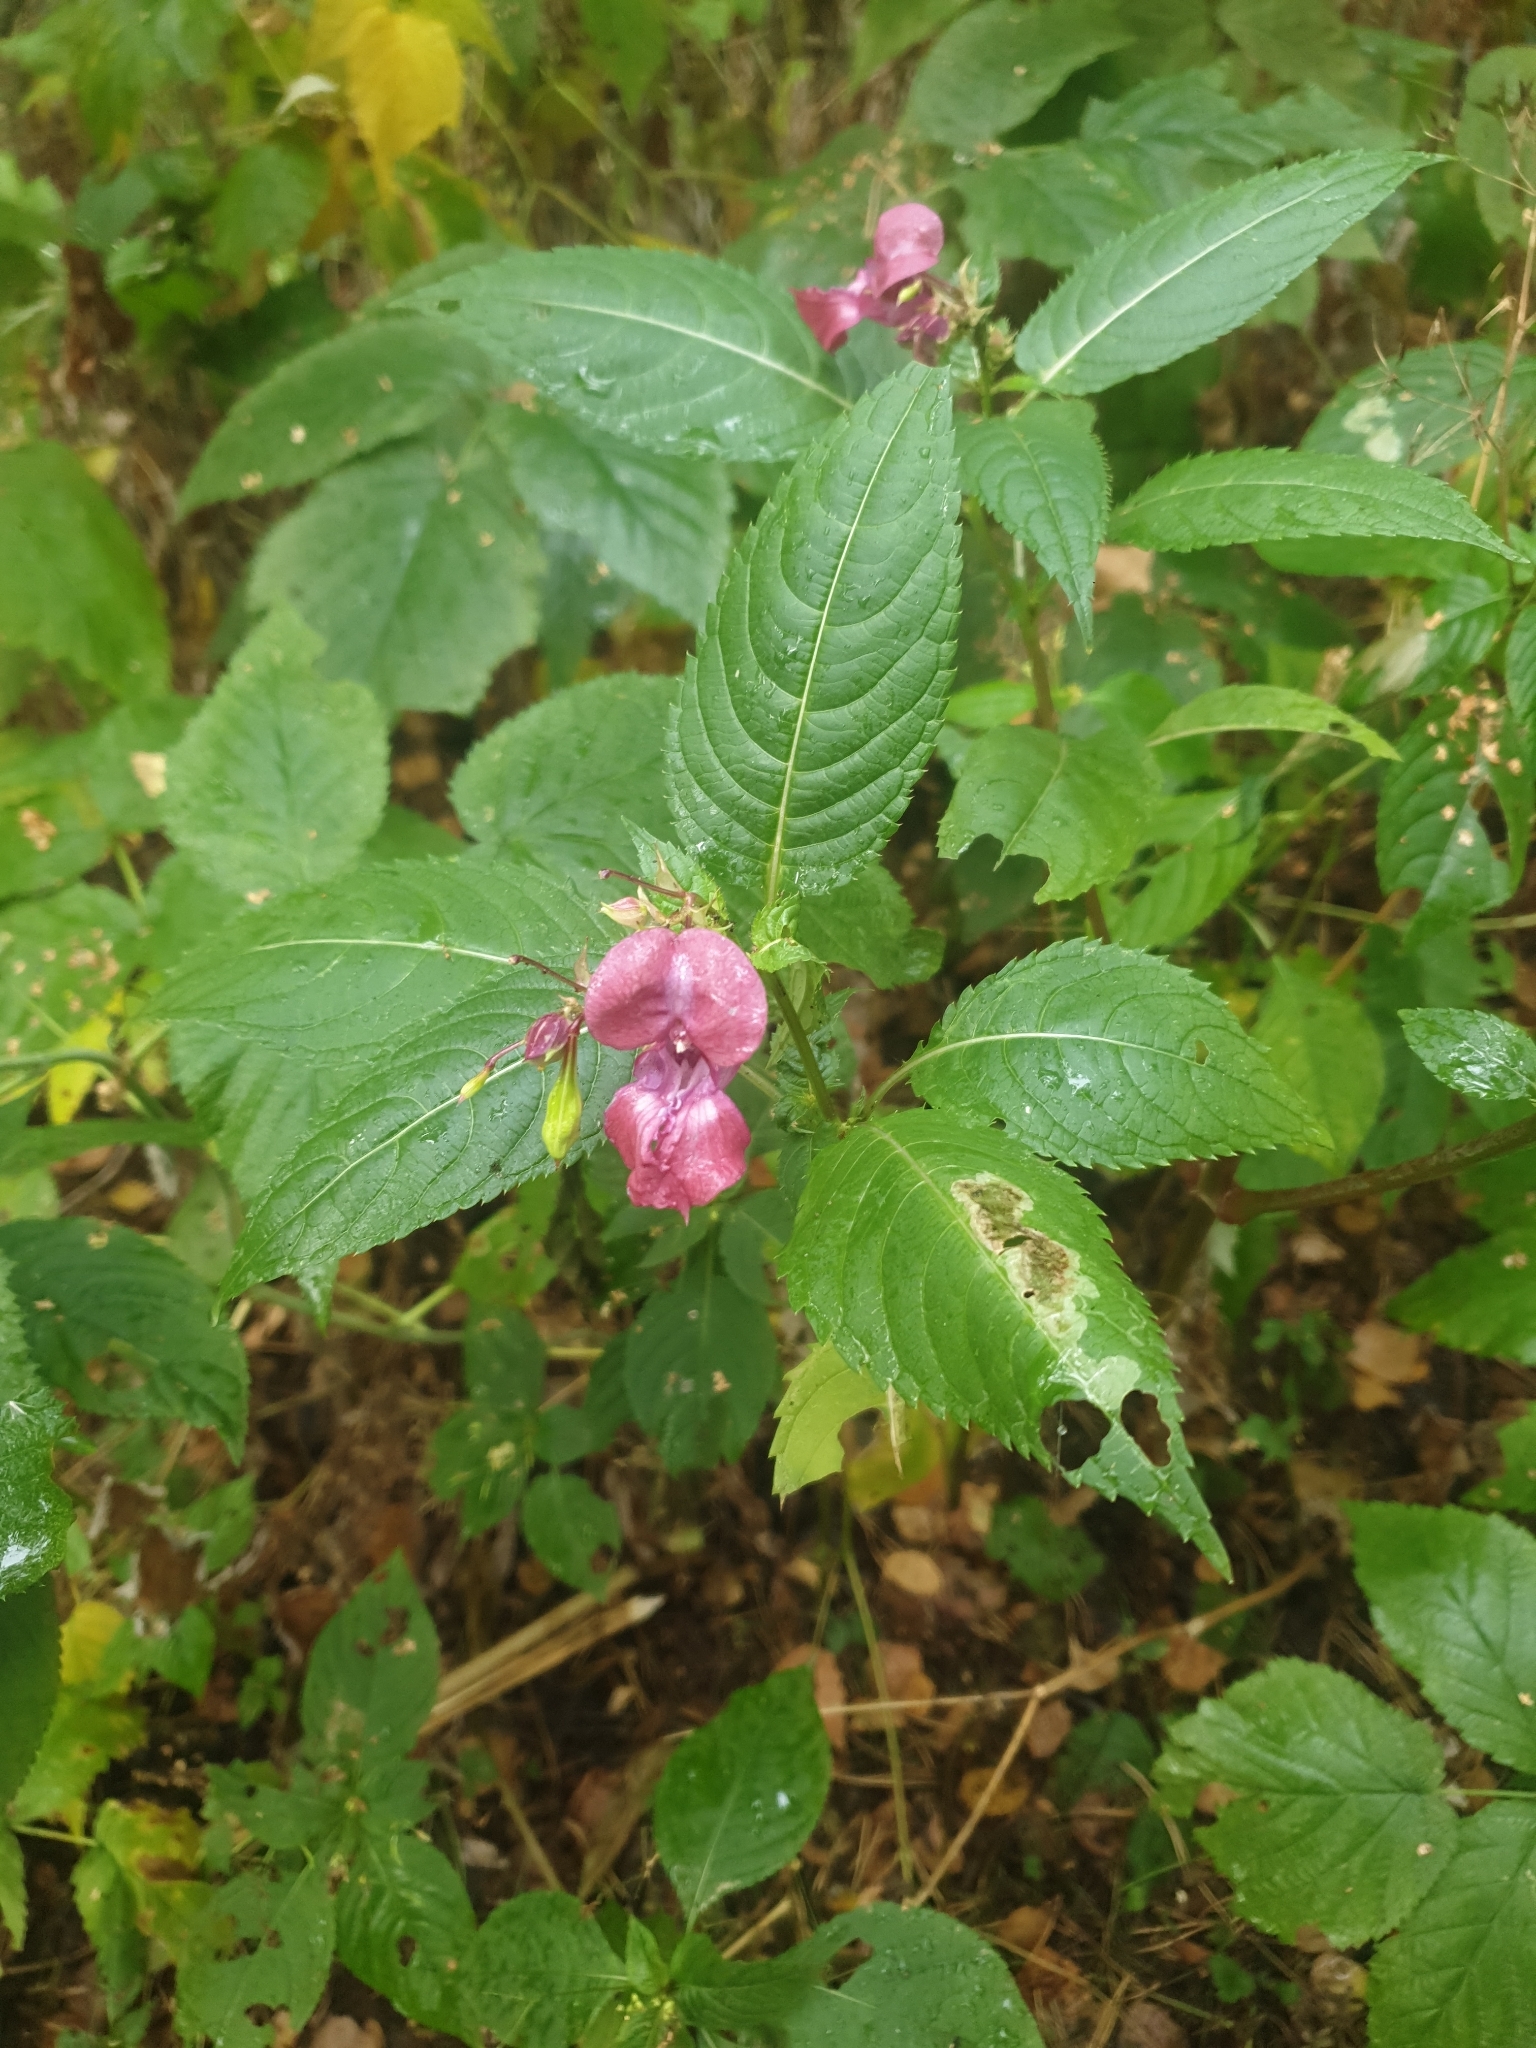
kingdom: Plantae
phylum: Tracheophyta
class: Magnoliopsida
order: Ericales
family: Balsaminaceae
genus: Impatiens
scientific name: Impatiens glandulifera
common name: Himalayan balsam
